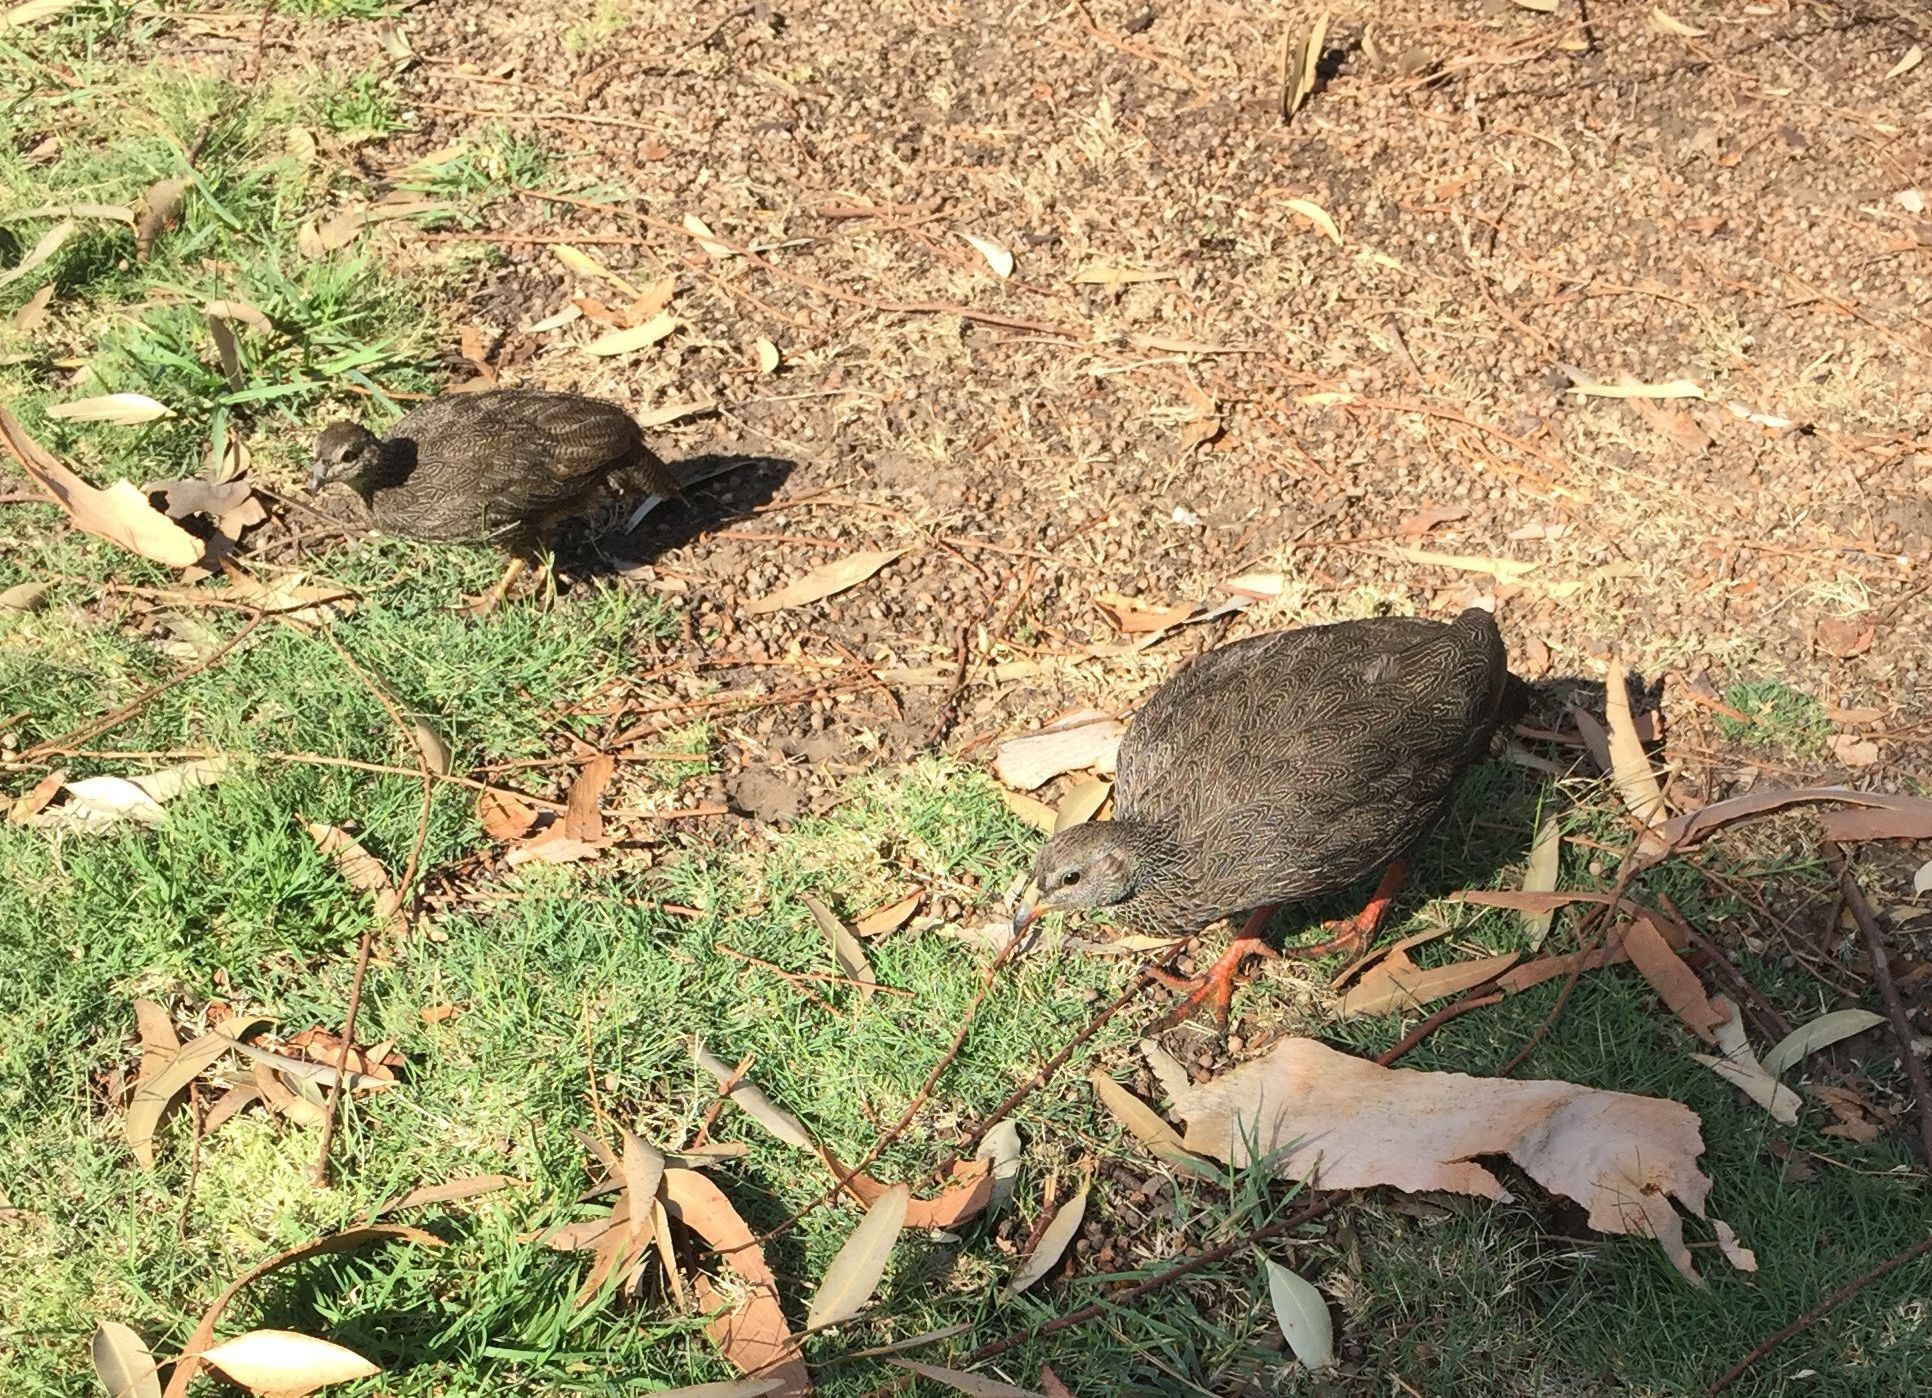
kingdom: Animalia
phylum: Chordata
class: Aves
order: Galliformes
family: Phasianidae
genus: Pternistis
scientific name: Pternistis capensis
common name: Cape spurfowl
